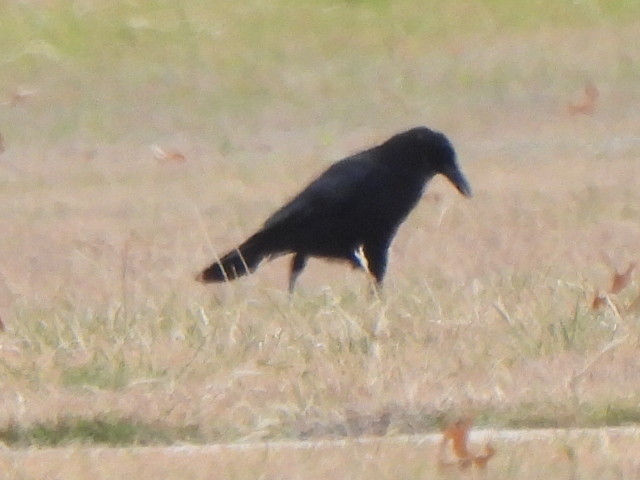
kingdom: Animalia
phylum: Chordata
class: Aves
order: Passeriformes
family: Corvidae
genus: Corvus
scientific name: Corvus brachyrhynchos
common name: American crow
